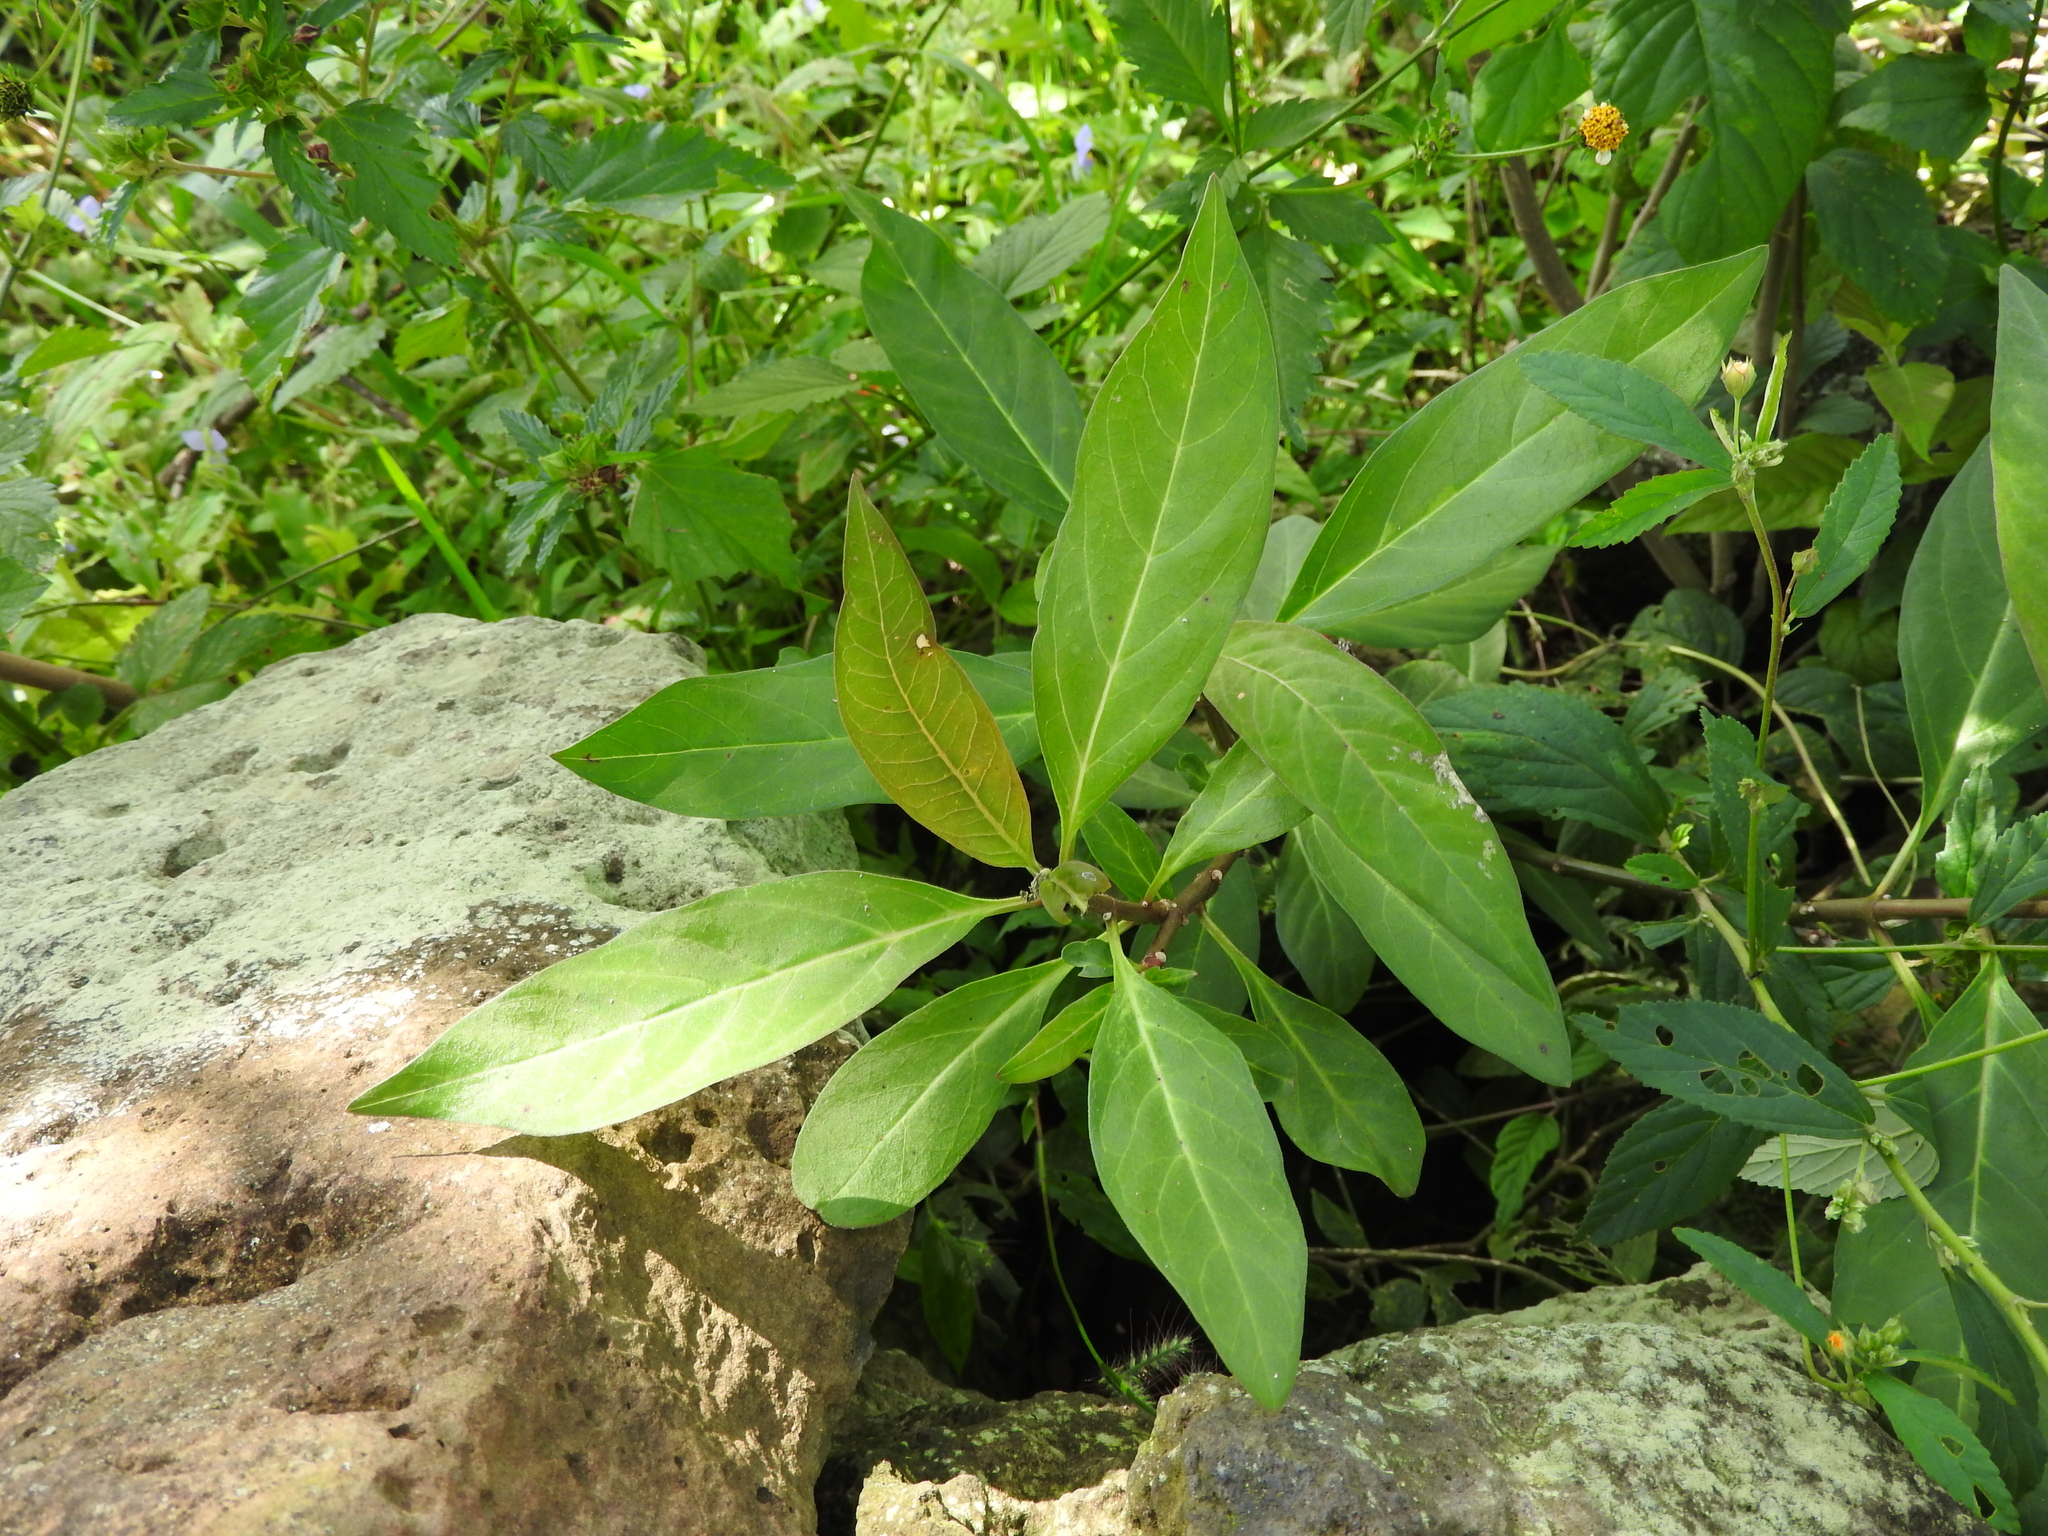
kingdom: Plantae
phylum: Tracheophyta
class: Magnoliopsida
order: Gentianales
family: Apocynaceae
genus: Asclepias
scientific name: Asclepias curassavica
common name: Bloodflower
